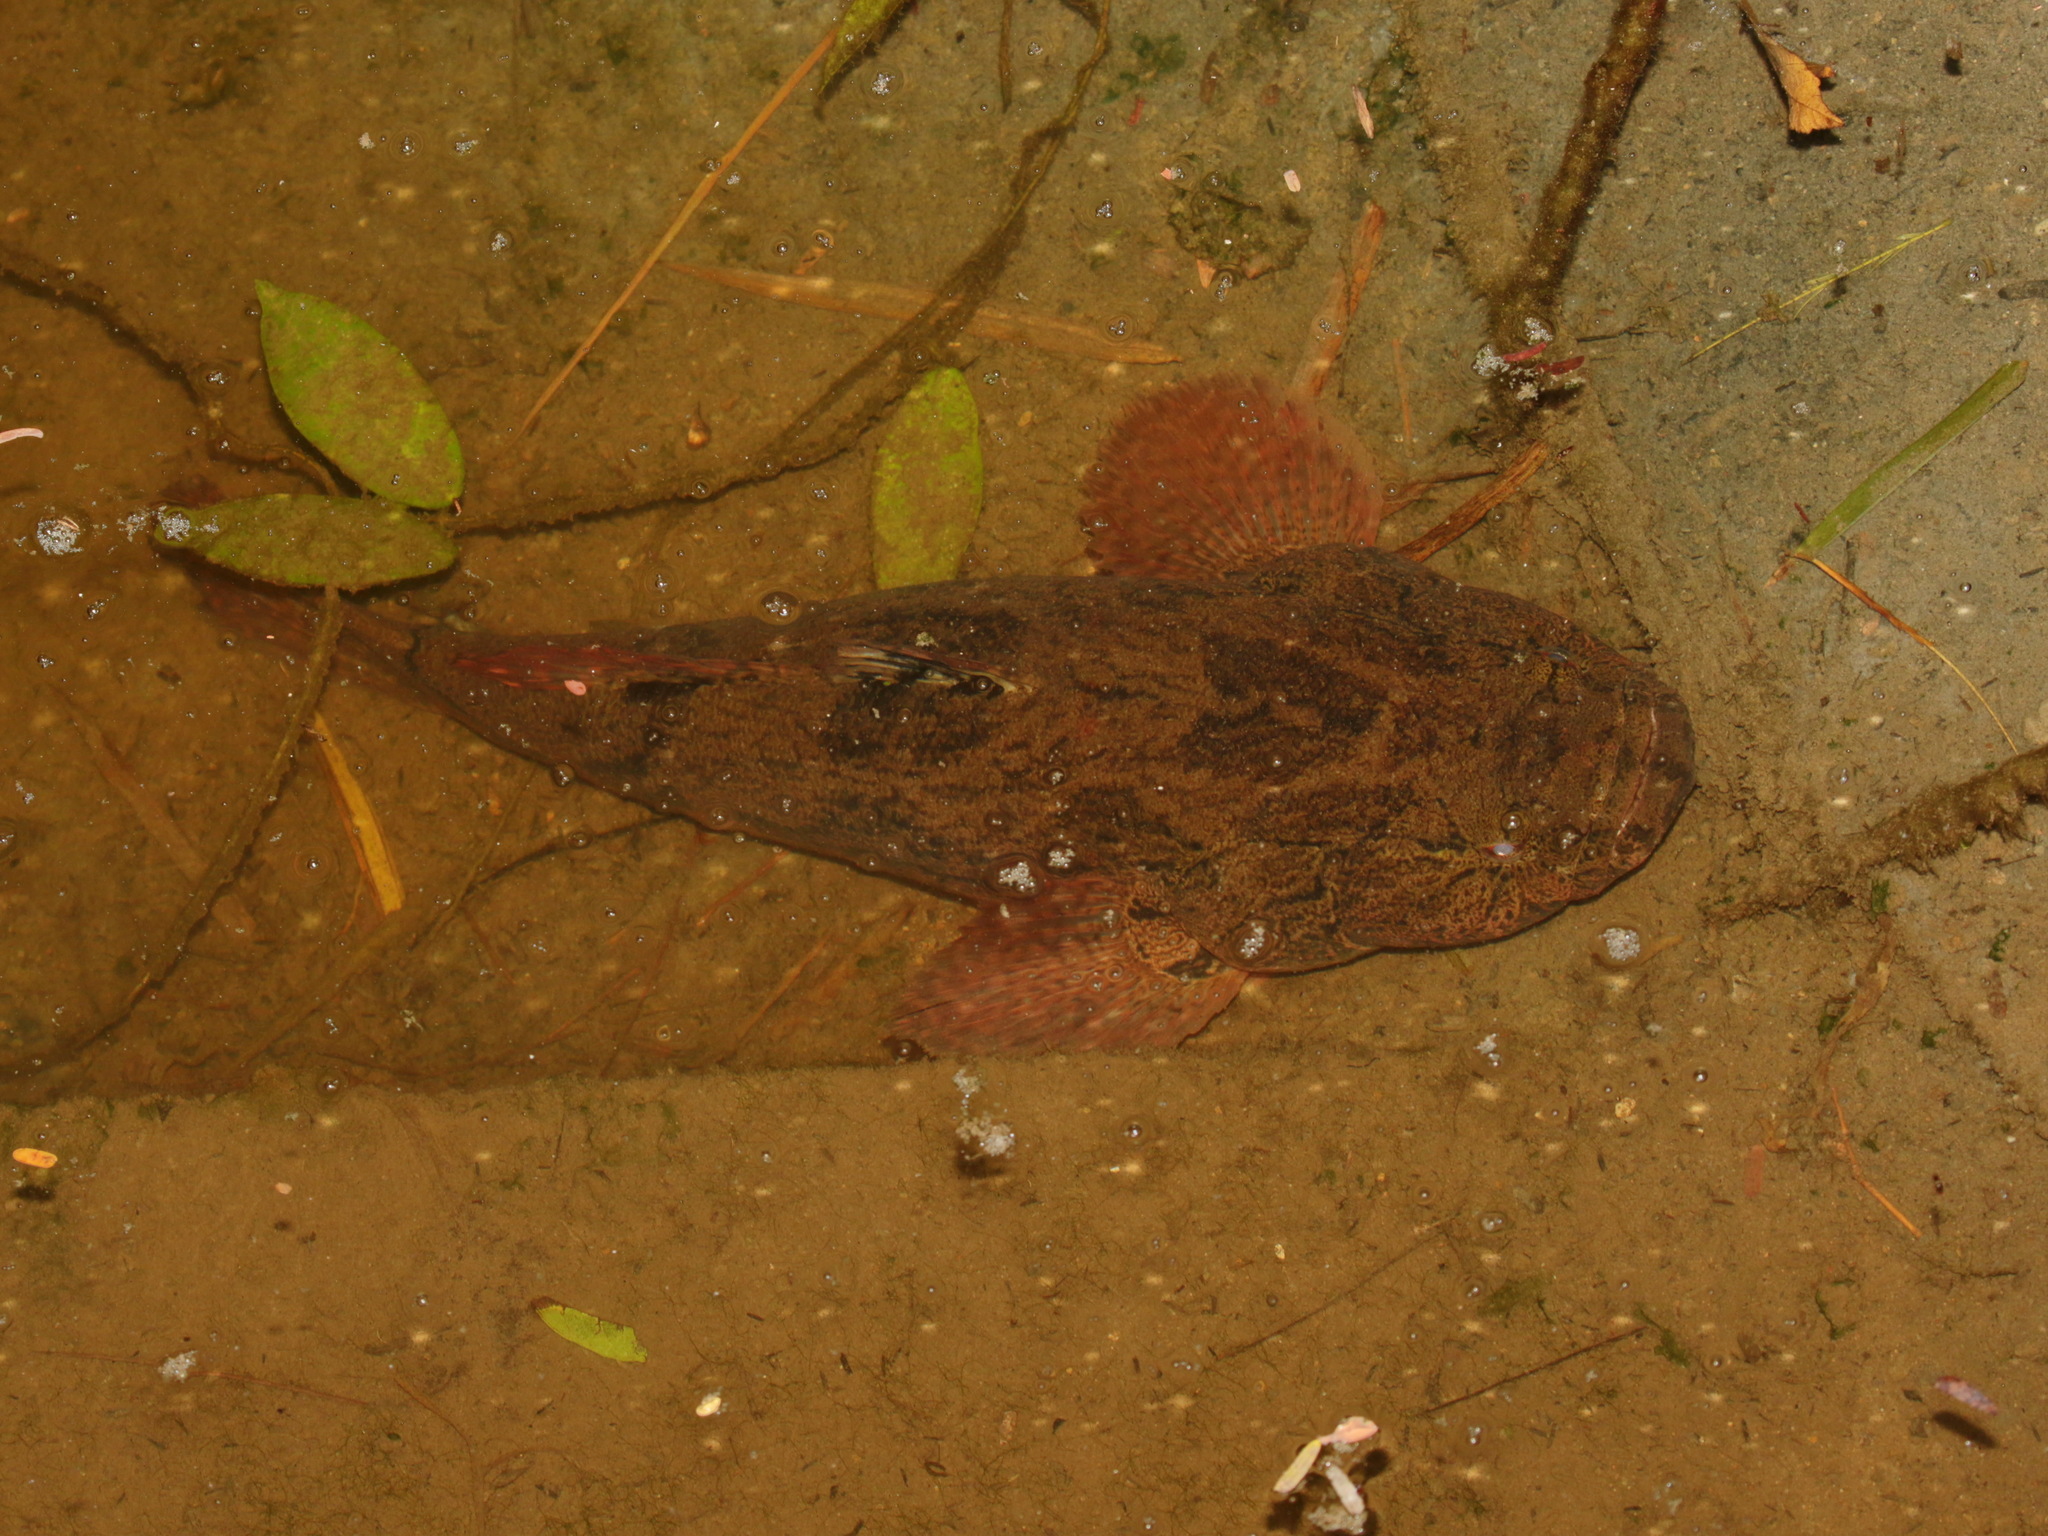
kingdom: Animalia
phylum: Chordata
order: Perciformes
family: Eleotridae
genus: Oxyeleotris
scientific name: Oxyeleotris marmorata
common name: Marble goby
